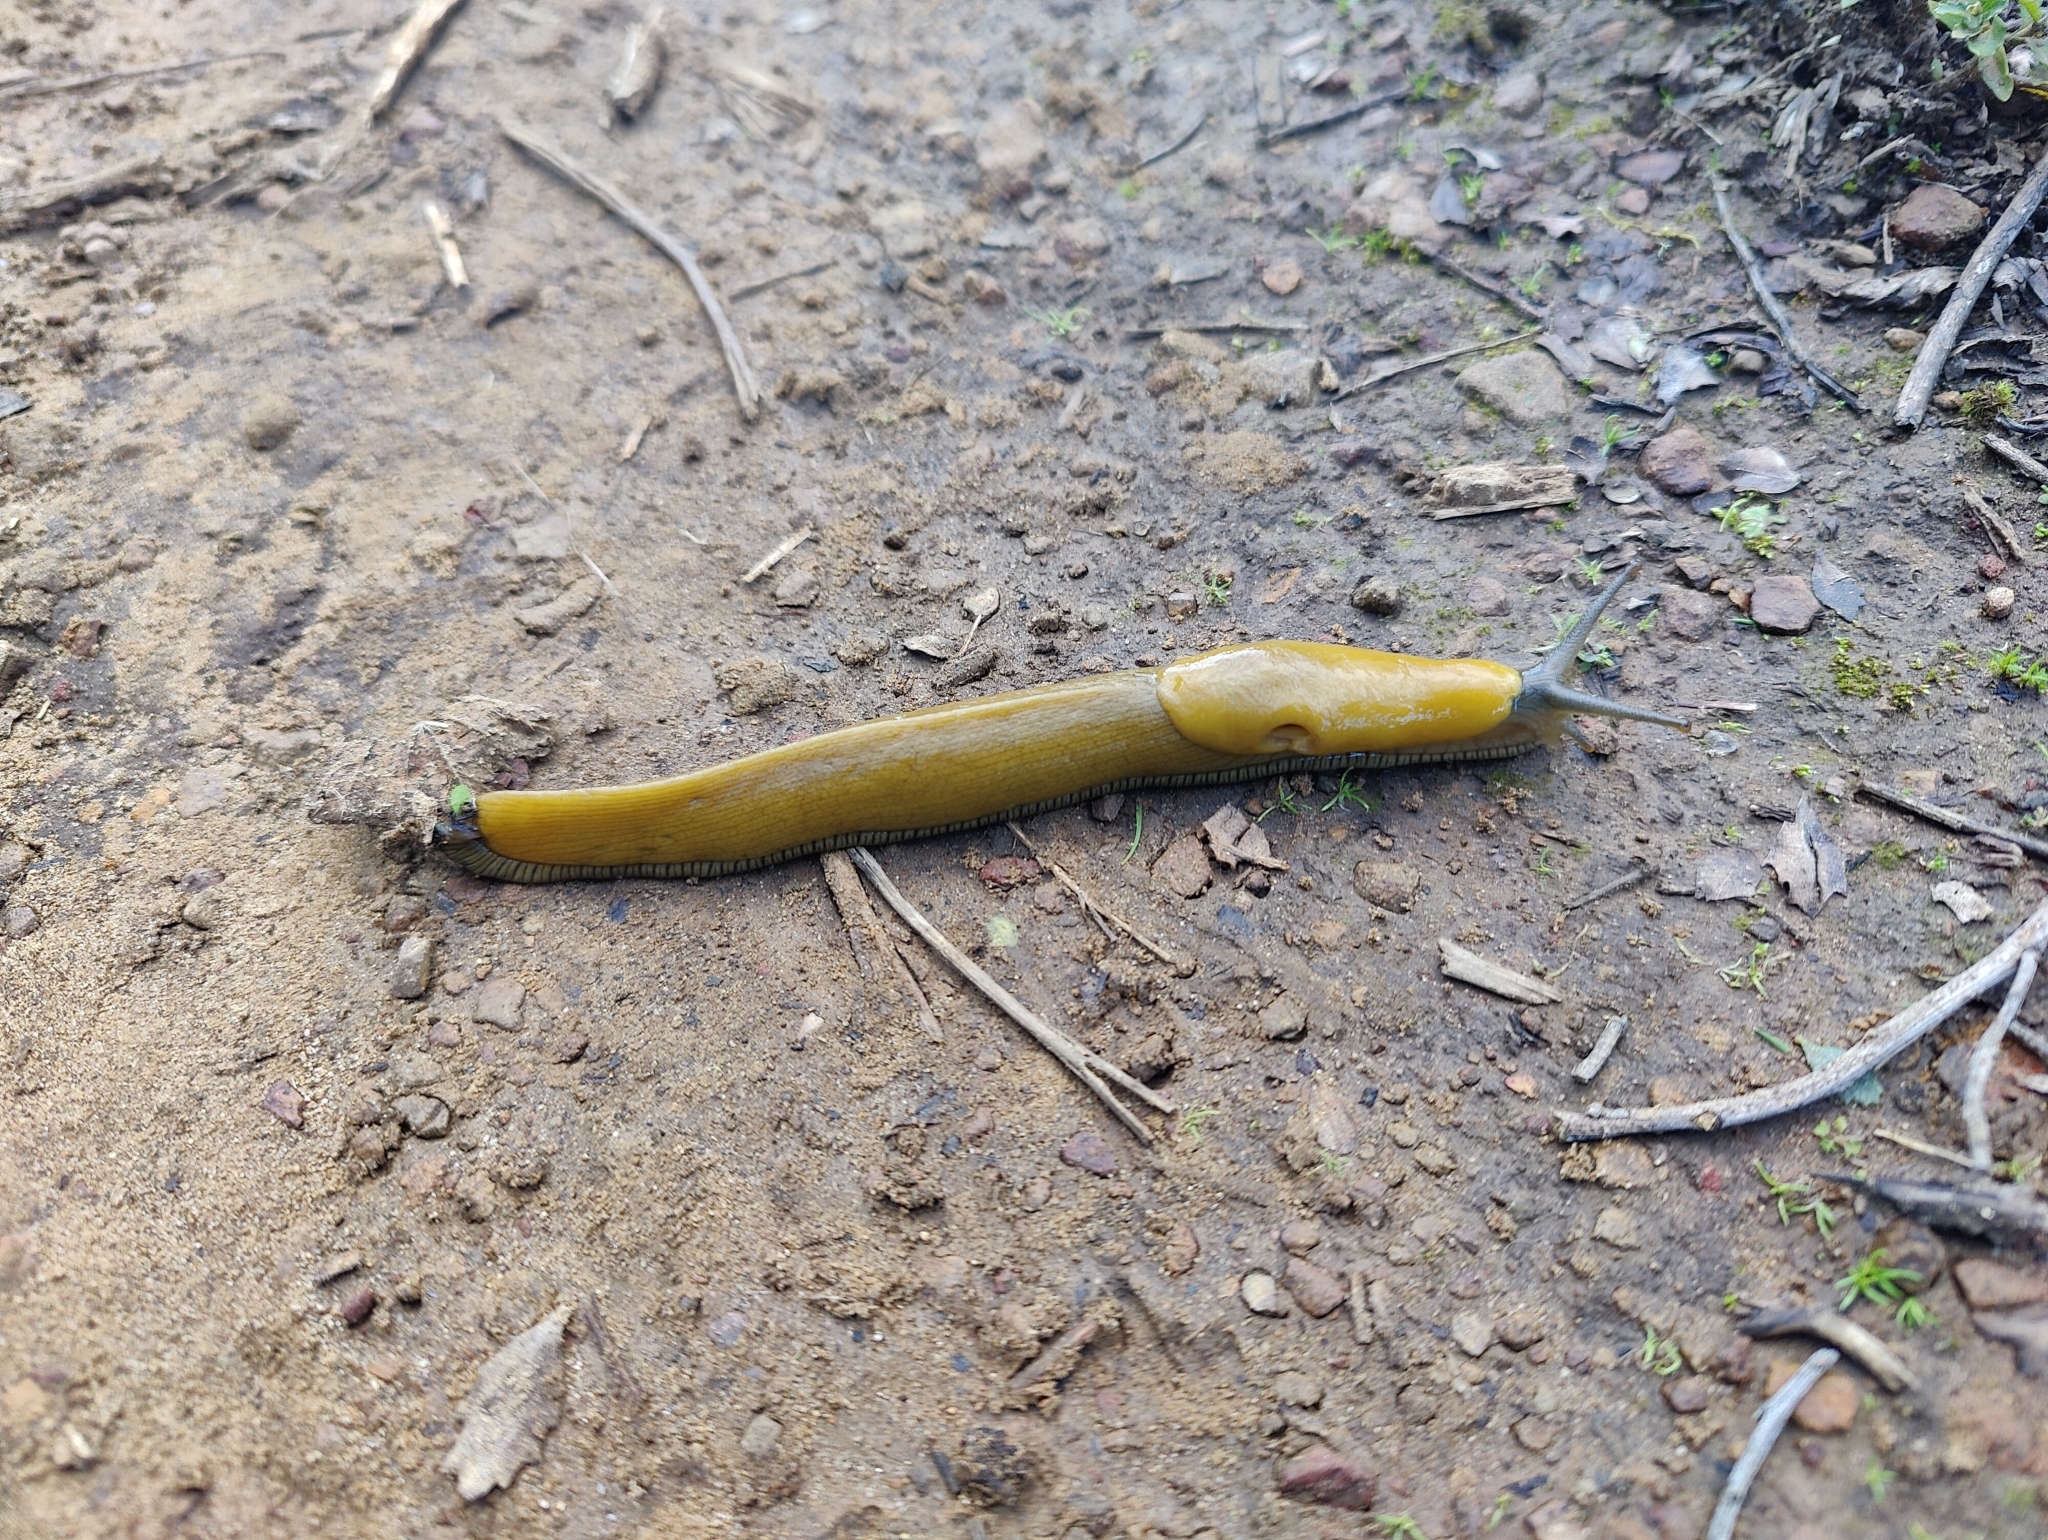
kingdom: Animalia
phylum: Mollusca
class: Gastropoda
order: Stylommatophora
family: Ariolimacidae
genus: Ariolimax
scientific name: Ariolimax
